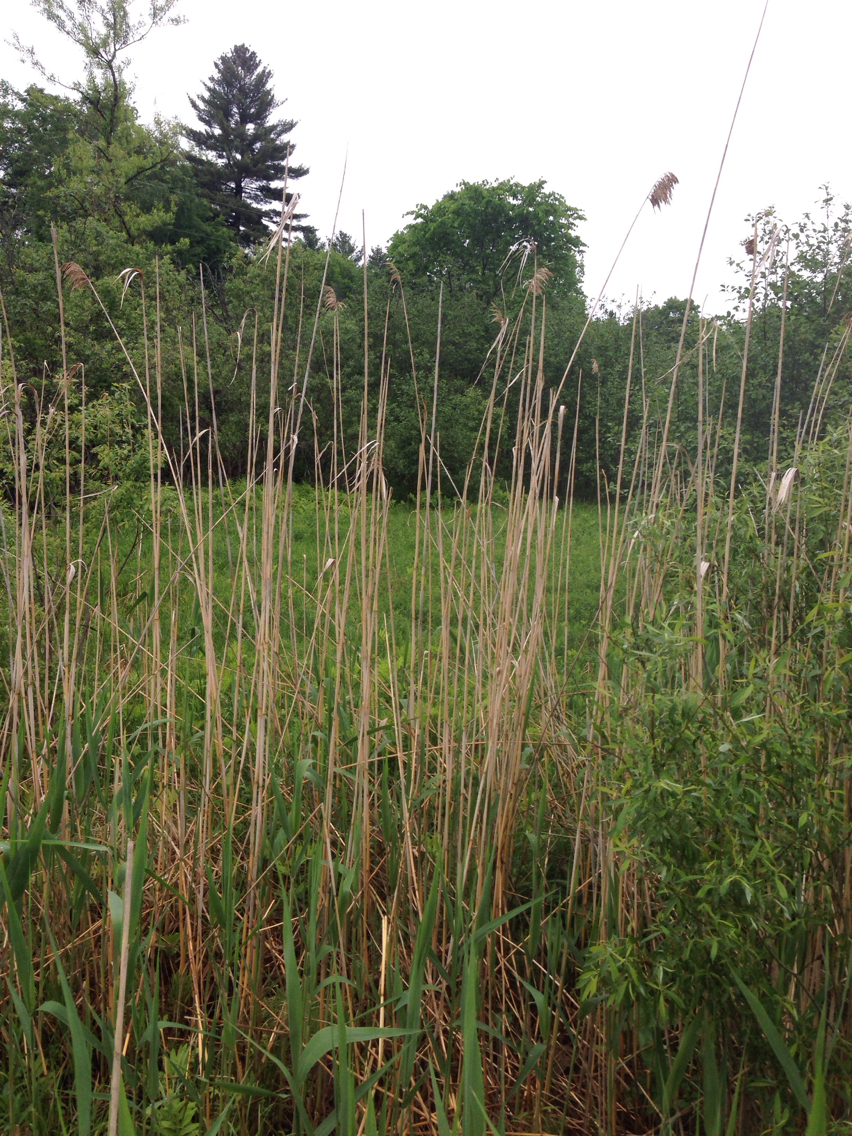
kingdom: Plantae
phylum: Tracheophyta
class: Liliopsida
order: Poales
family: Poaceae
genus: Phragmites
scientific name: Phragmites australis
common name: Common reed
